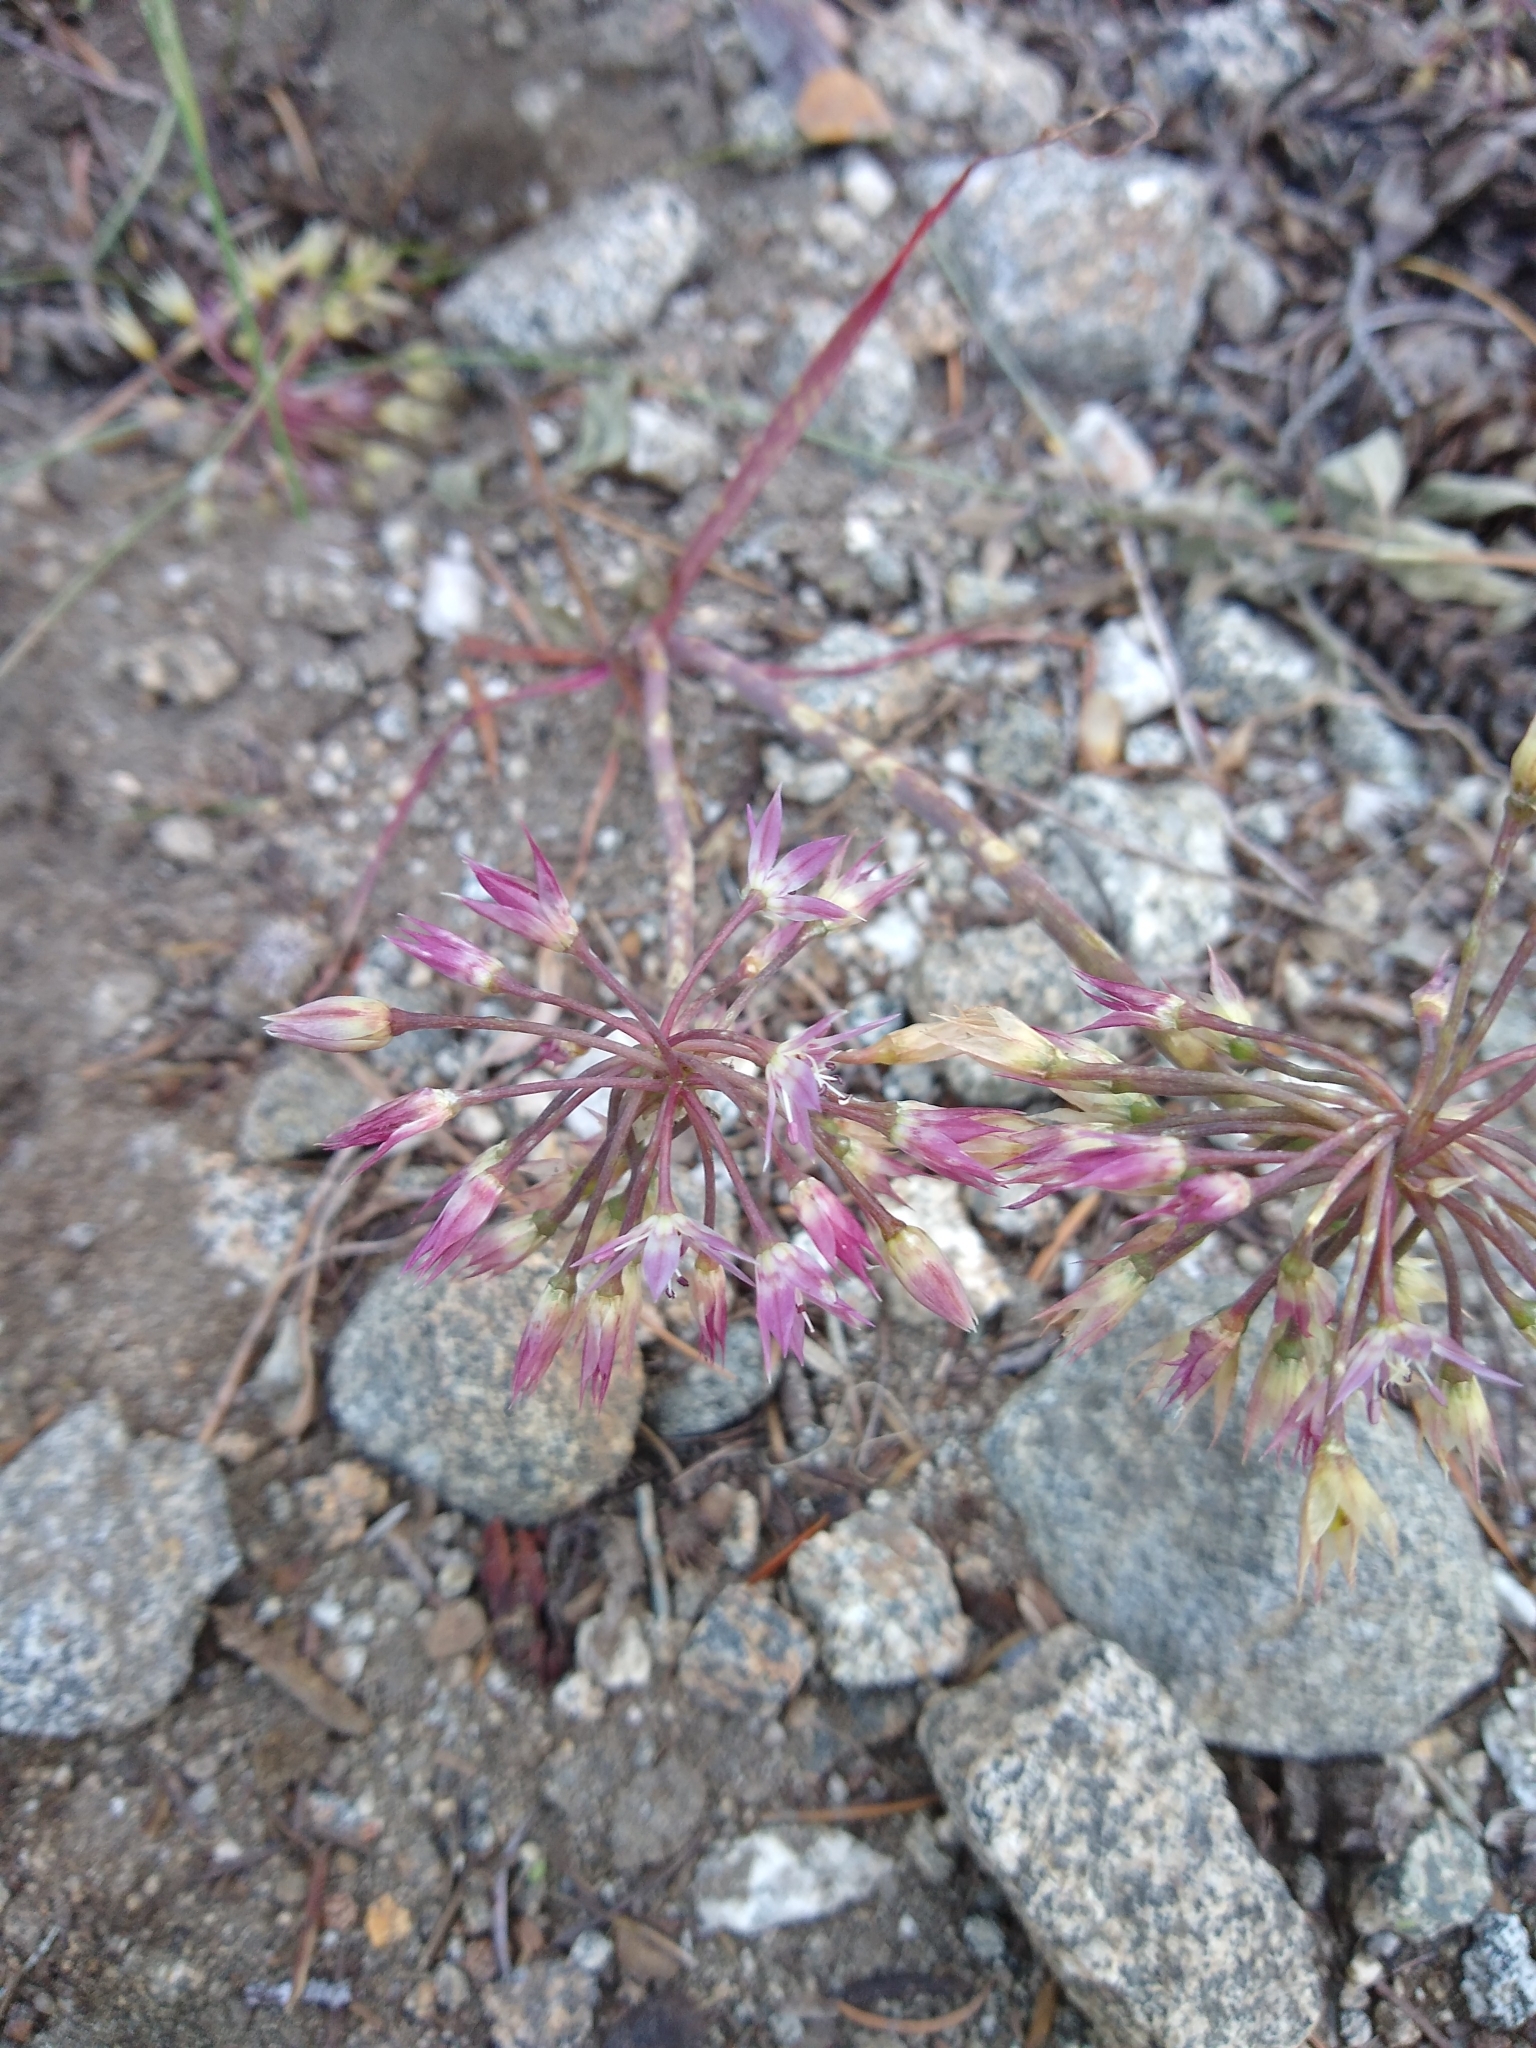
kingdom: Plantae
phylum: Tracheophyta
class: Liliopsida
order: Asparagales
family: Amaryllidaceae
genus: Allium
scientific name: Allium campanulatum
